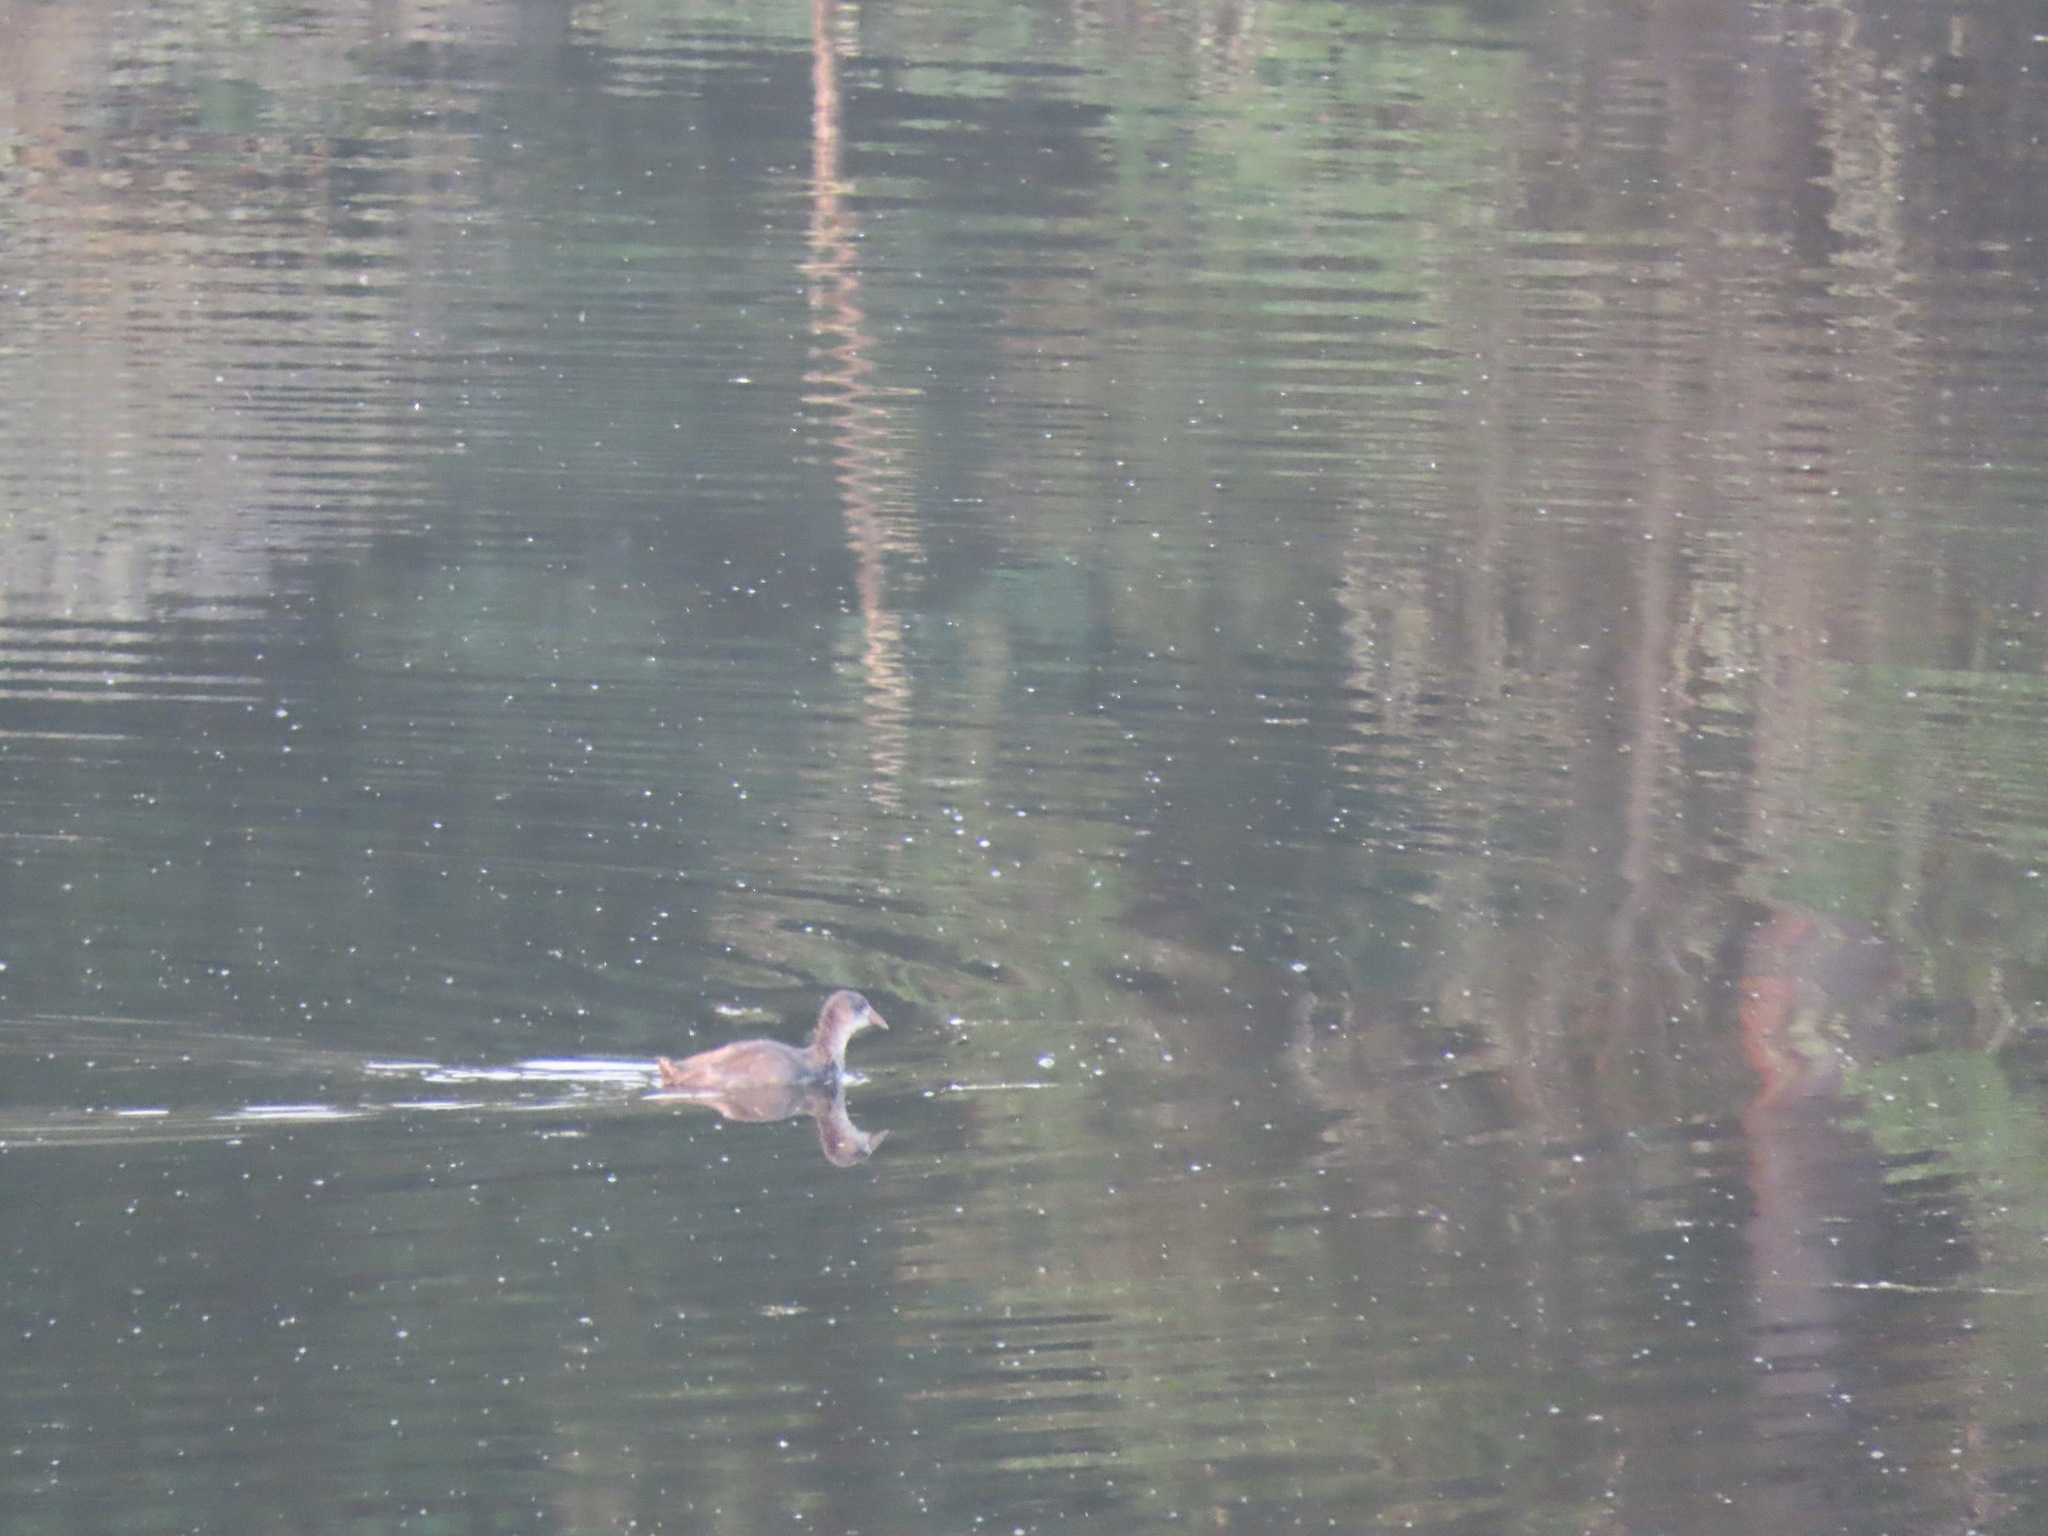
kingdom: Animalia
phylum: Chordata
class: Aves
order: Gruiformes
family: Rallidae
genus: Fulica
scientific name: Fulica americana
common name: American coot
